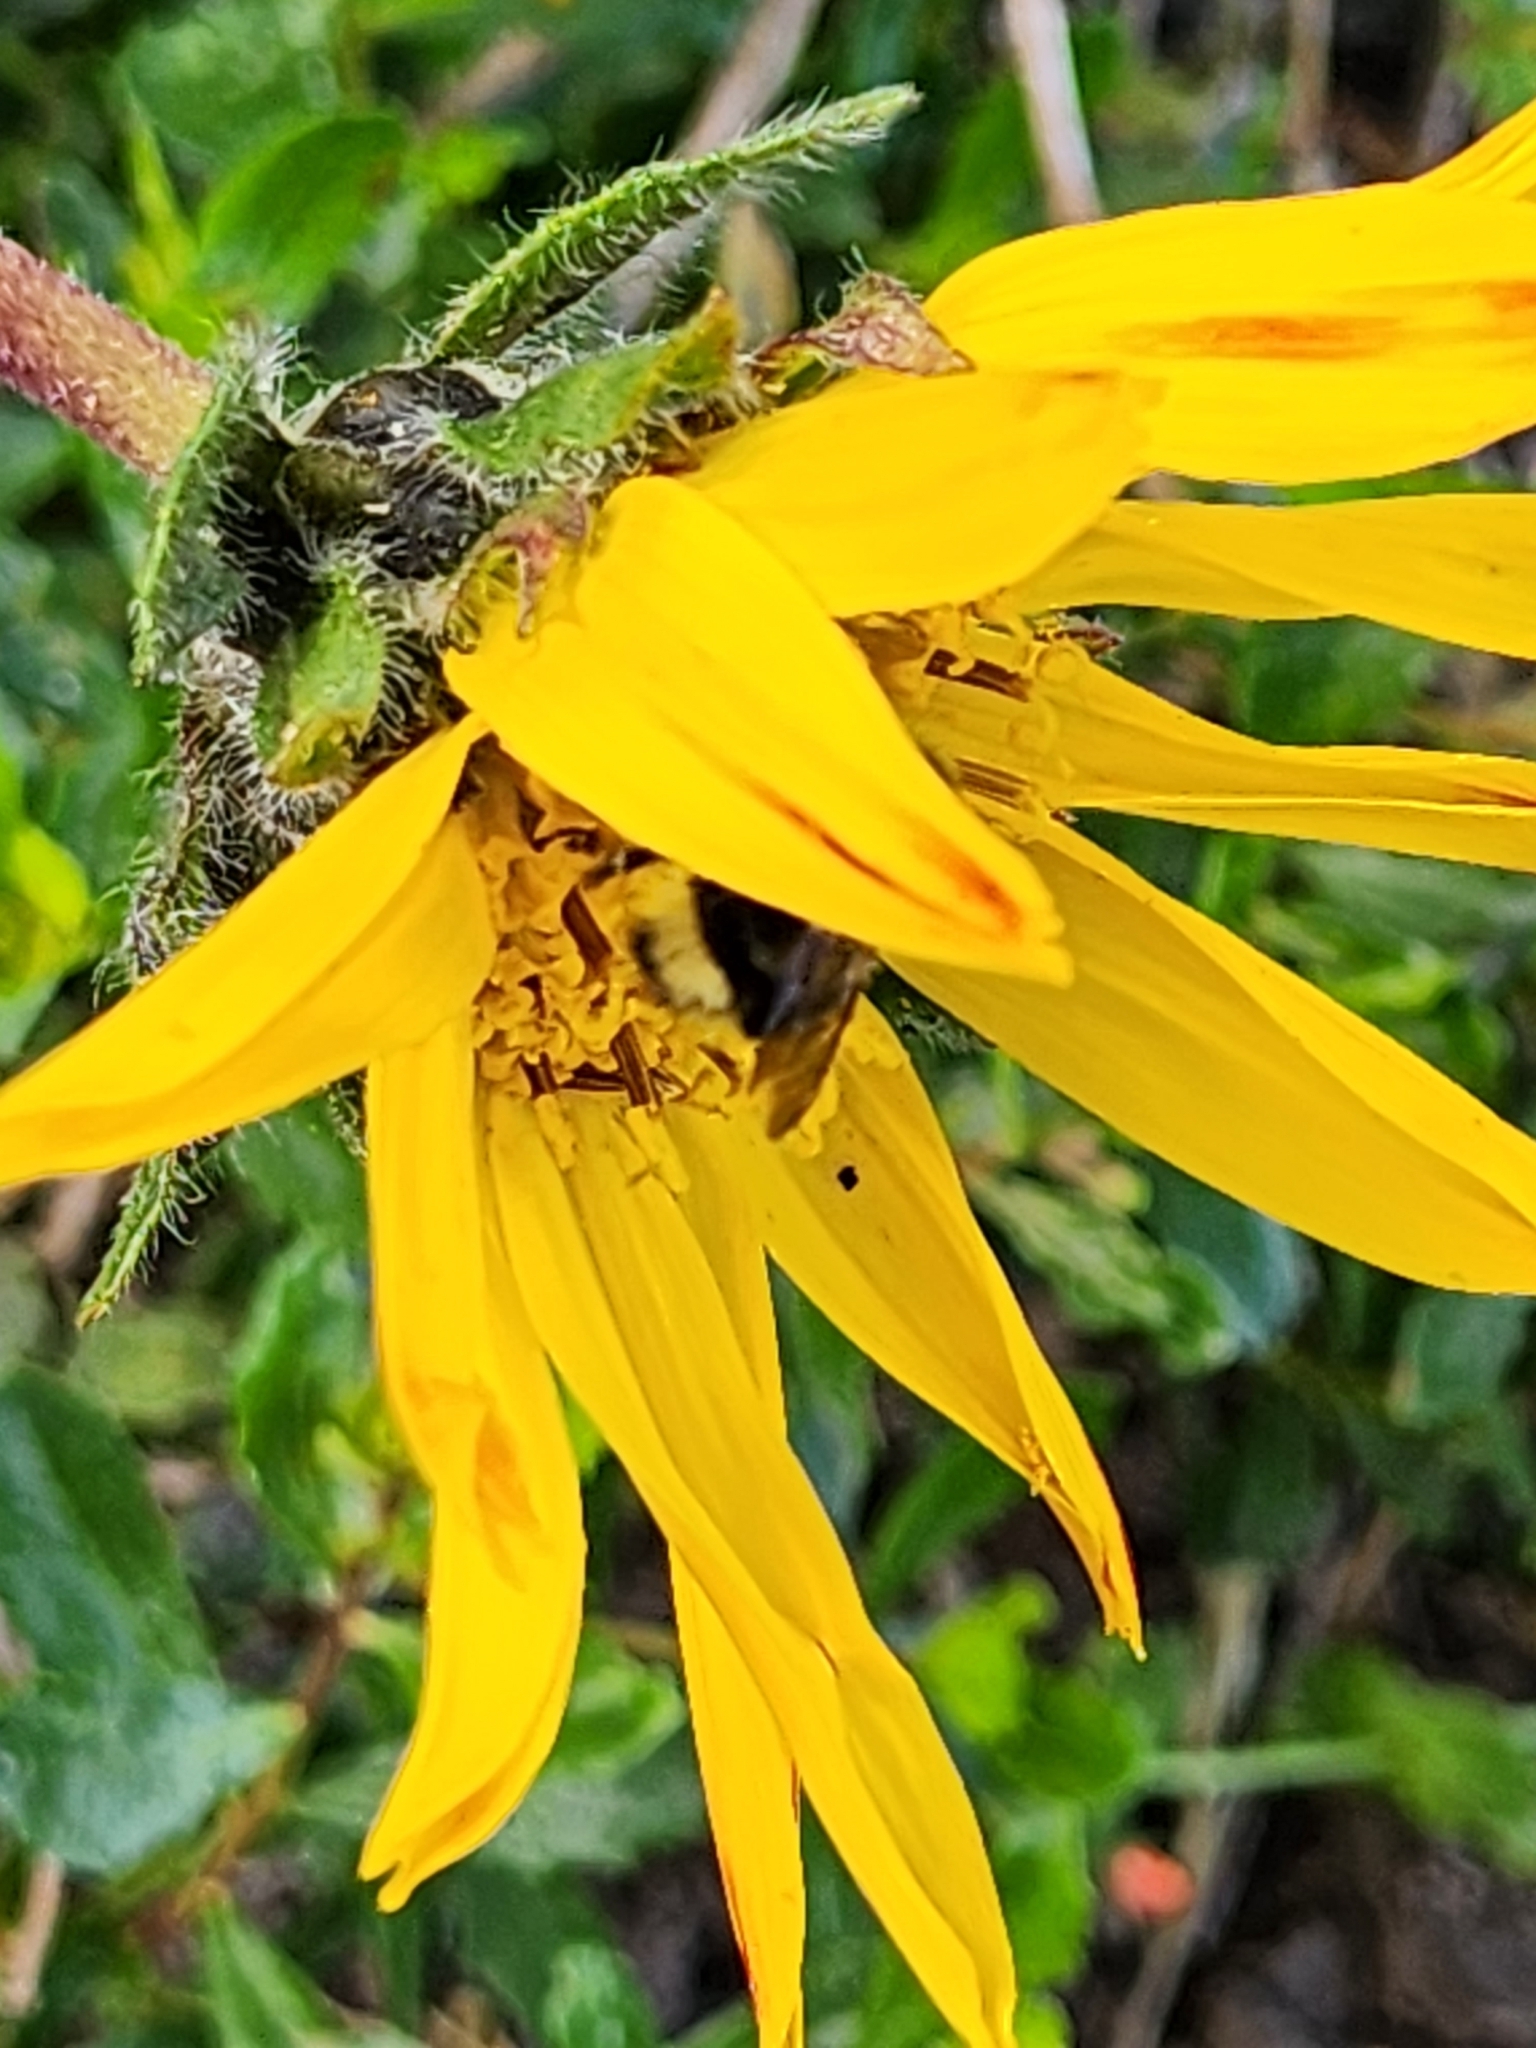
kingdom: Animalia
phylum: Arthropoda
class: Insecta
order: Hymenoptera
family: Apidae
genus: Bombus
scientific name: Bombus melanopygus
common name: Black tail bumble bee
